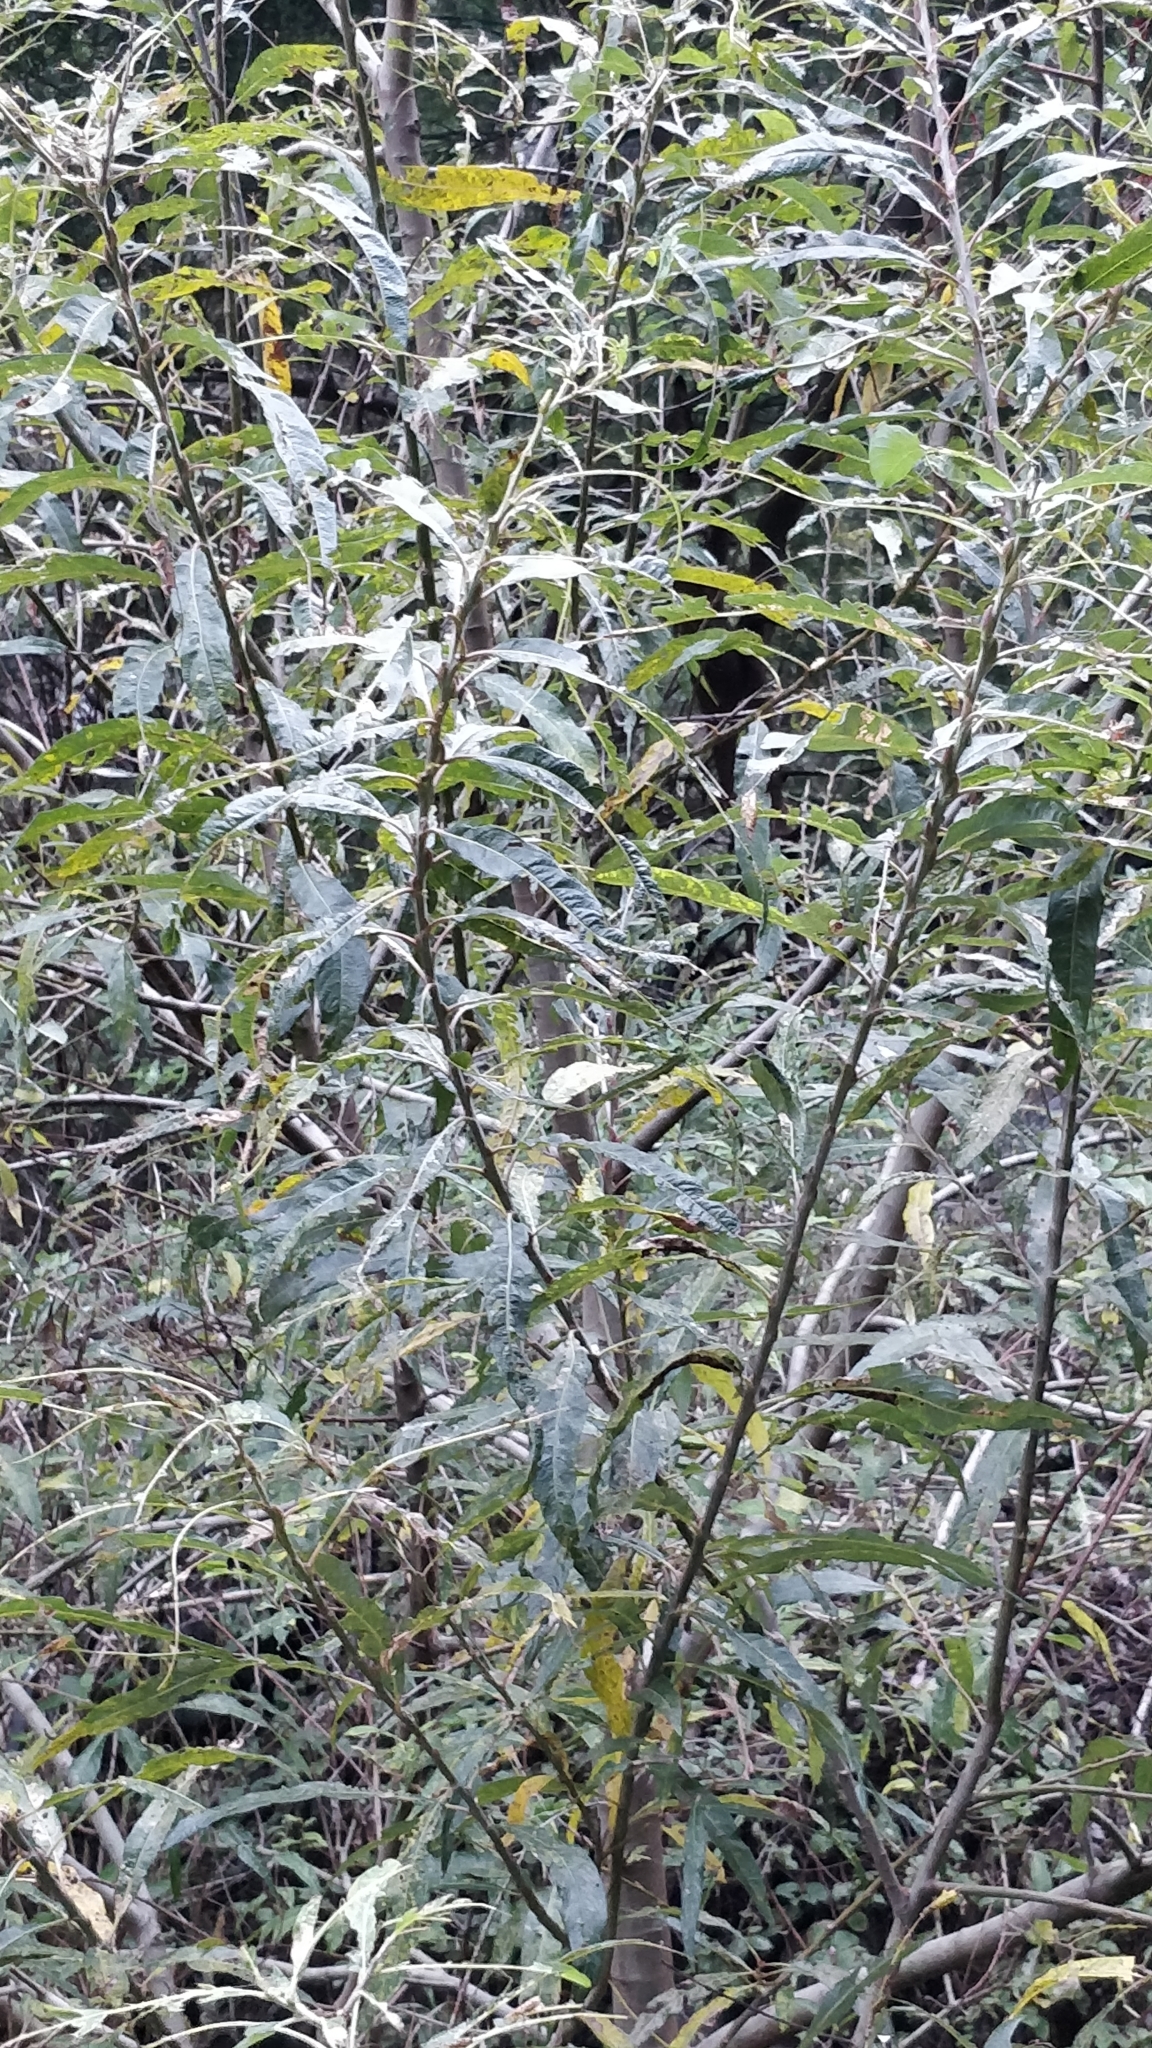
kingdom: Plantae
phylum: Tracheophyta
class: Magnoliopsida
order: Malpighiales
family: Salicaceae
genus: Salix
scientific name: Salix canariensis
